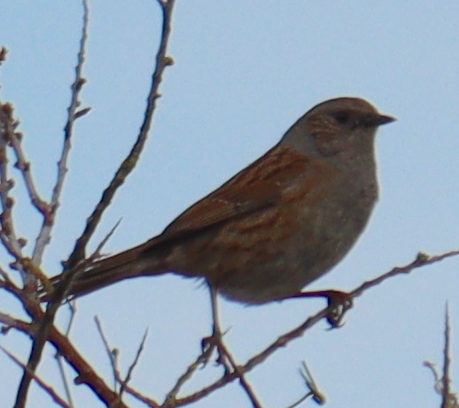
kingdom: Animalia
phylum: Chordata
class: Aves
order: Passeriformes
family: Prunellidae
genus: Prunella
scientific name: Prunella modularis
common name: Dunnock
